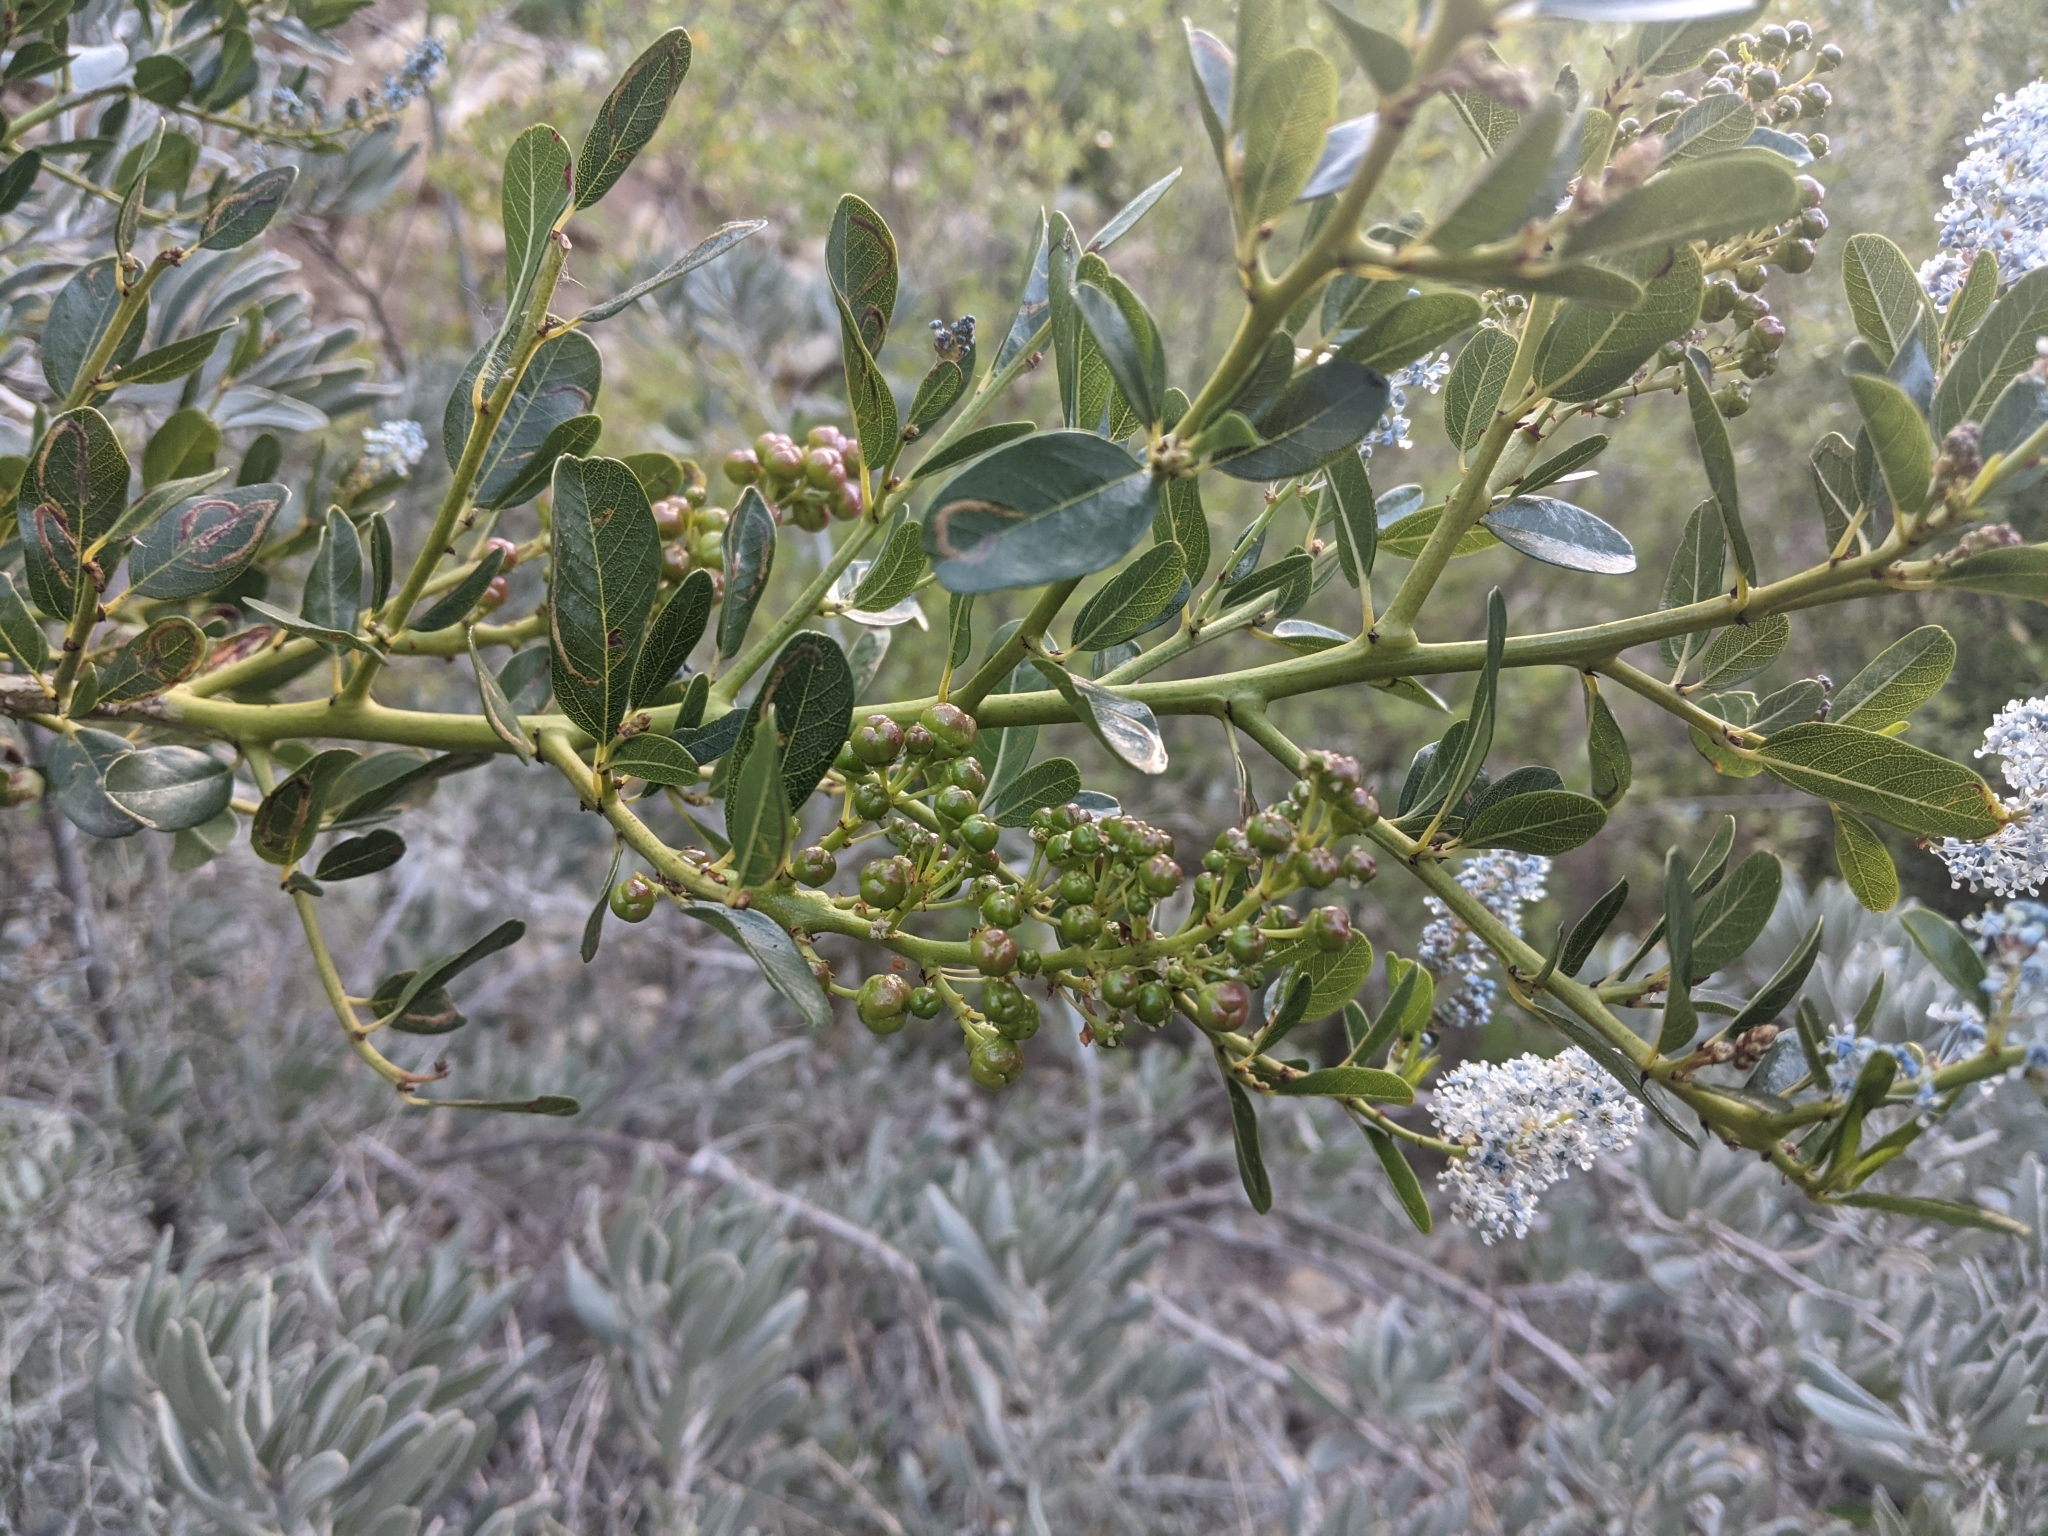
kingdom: Plantae
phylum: Tracheophyta
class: Magnoliopsida
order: Rosales
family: Rhamnaceae
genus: Ceanothus
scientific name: Ceanothus spinosus
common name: Greenbark whitethorn
